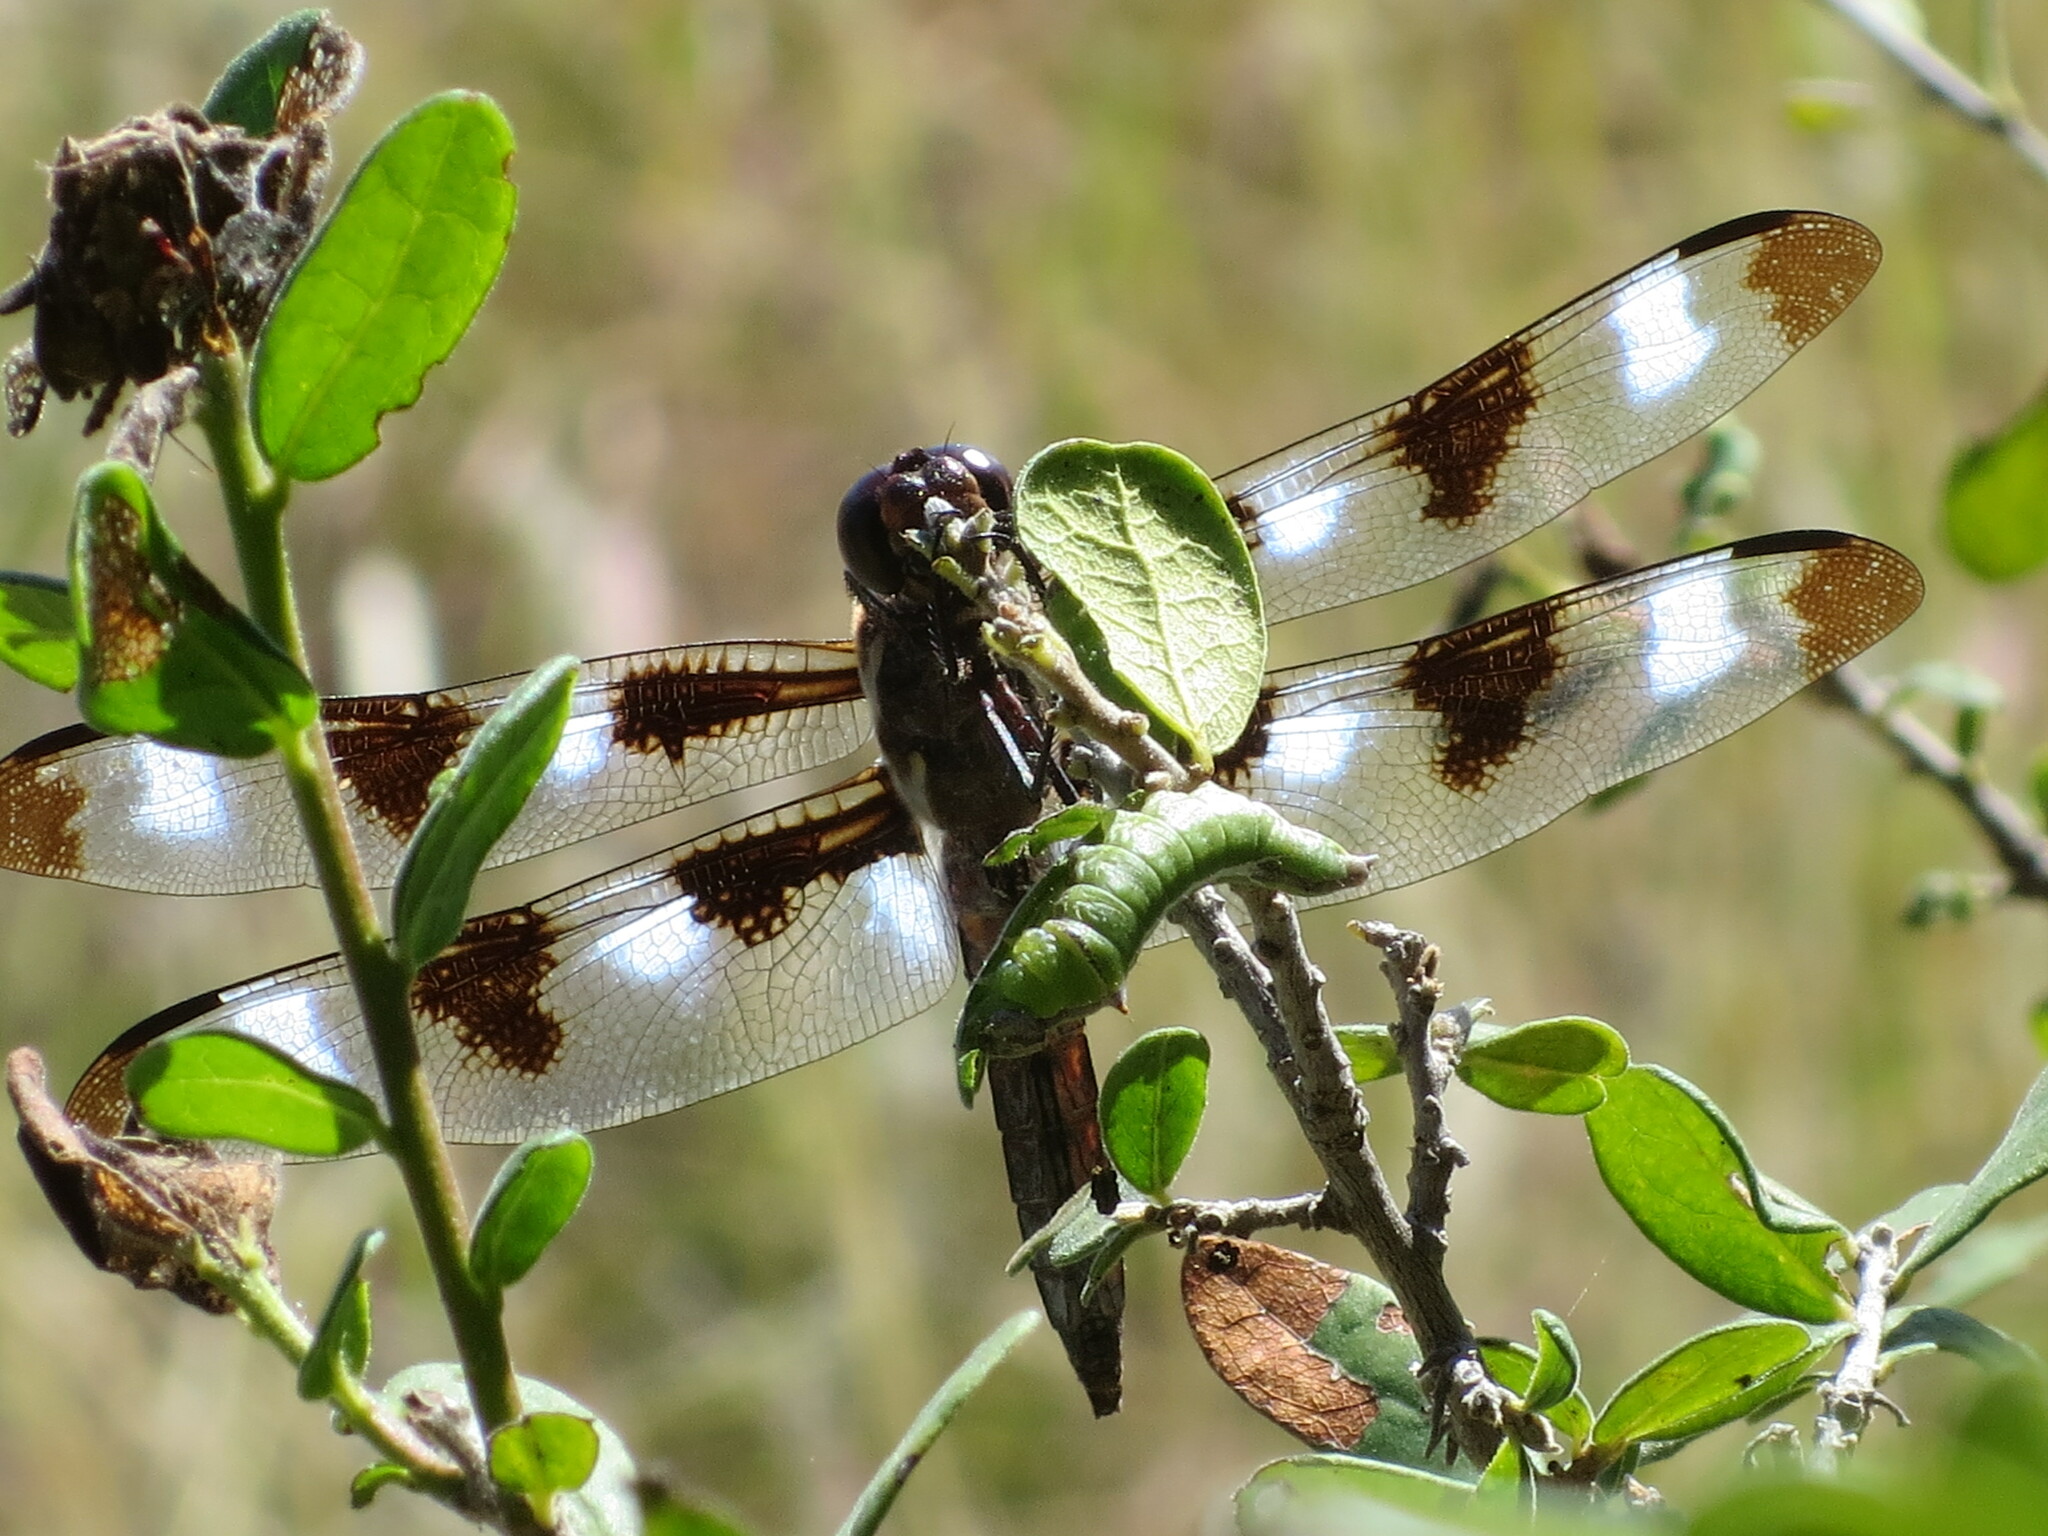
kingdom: Animalia
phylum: Arthropoda
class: Insecta
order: Odonata
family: Libellulidae
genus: Libellula
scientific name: Libellula pulchella
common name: Twelve-spotted skimmer
